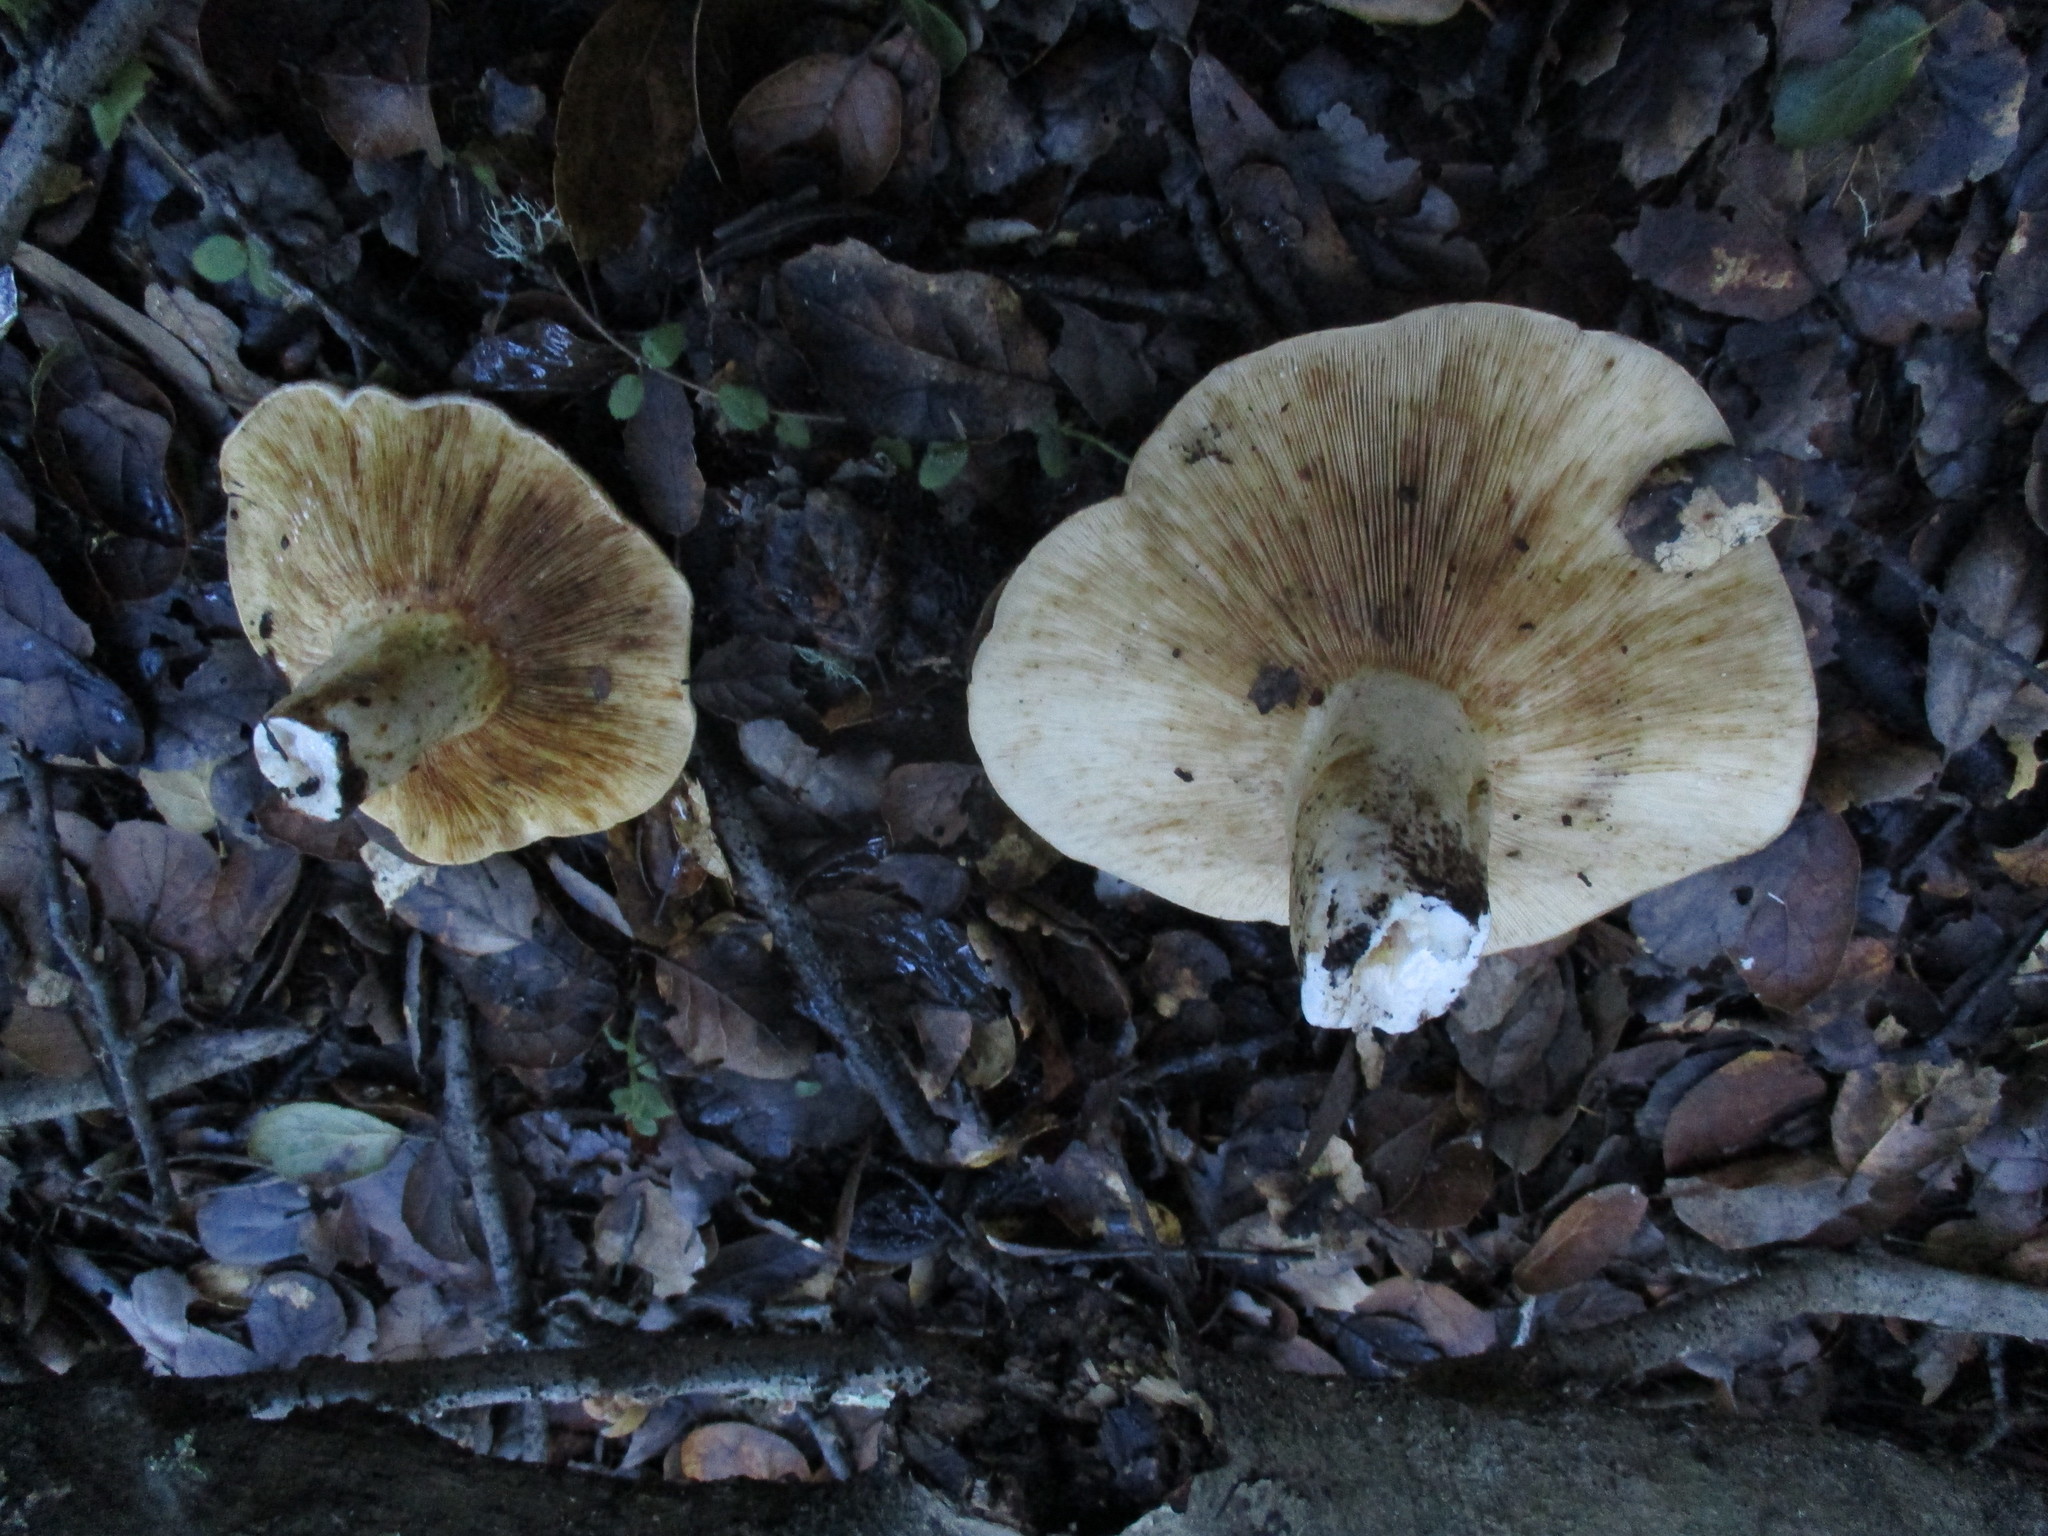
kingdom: Fungi
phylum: Basidiomycota
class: Agaricomycetes
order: Russulales
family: Russulaceae
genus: Lactarius
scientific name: Lactarius argillaceifolius
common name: Clay-gilled milkcap
